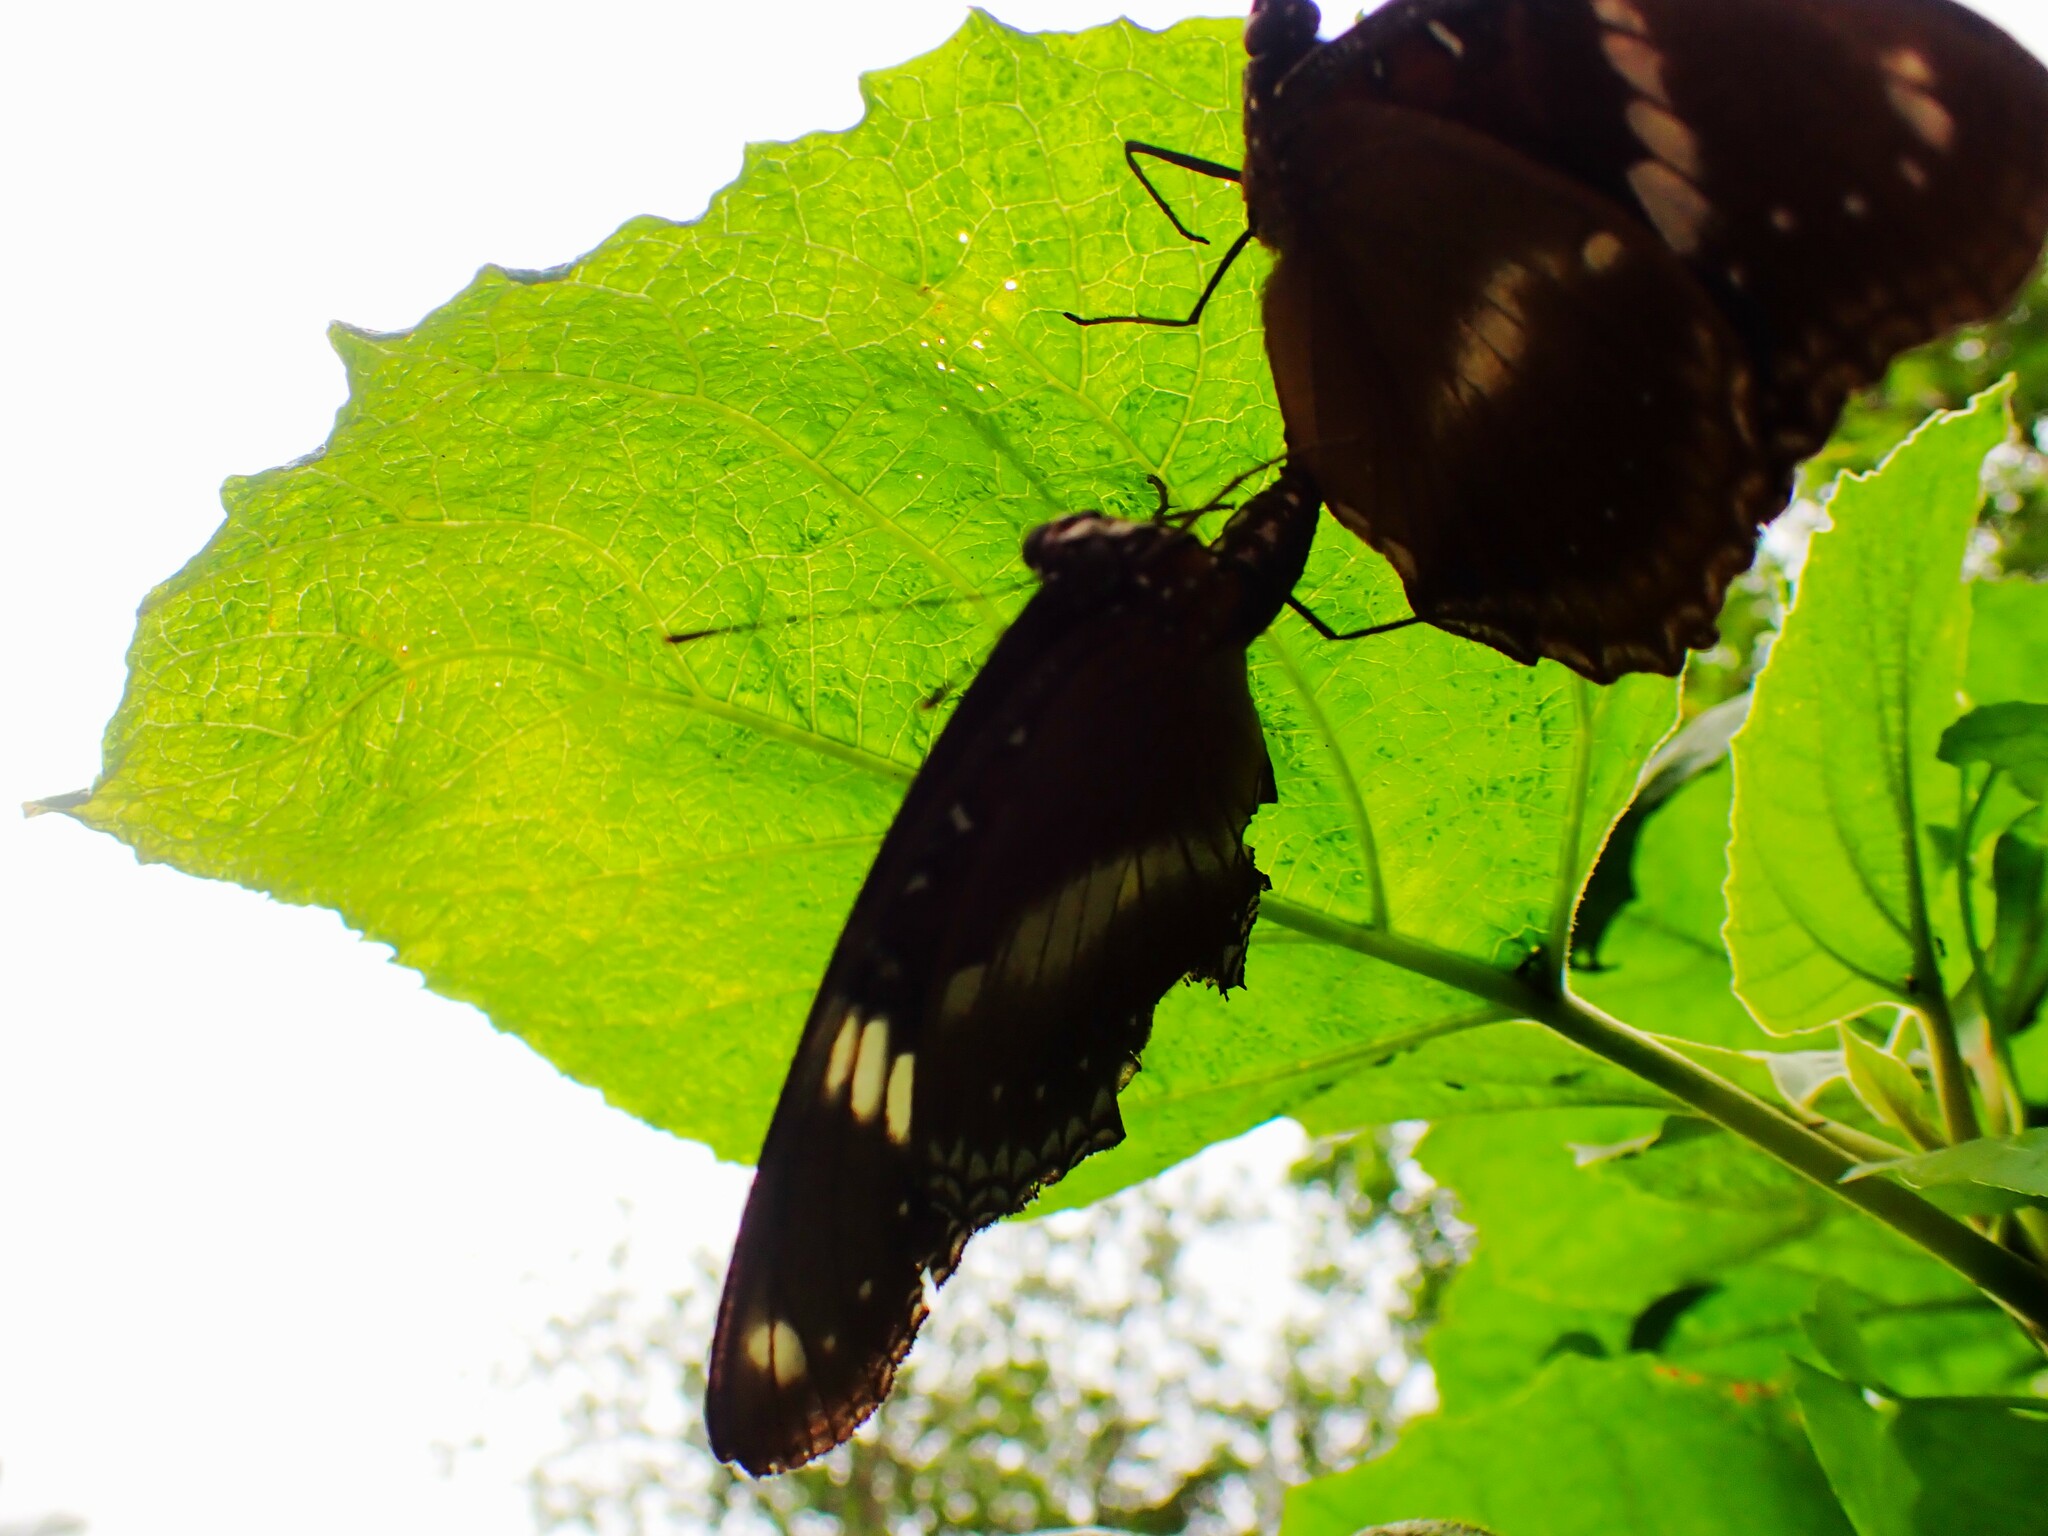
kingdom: Animalia
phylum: Arthropoda
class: Insecta
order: Lepidoptera
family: Nymphalidae
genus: Hypolimnas
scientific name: Hypolimnas bolina
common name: Great eggfly
